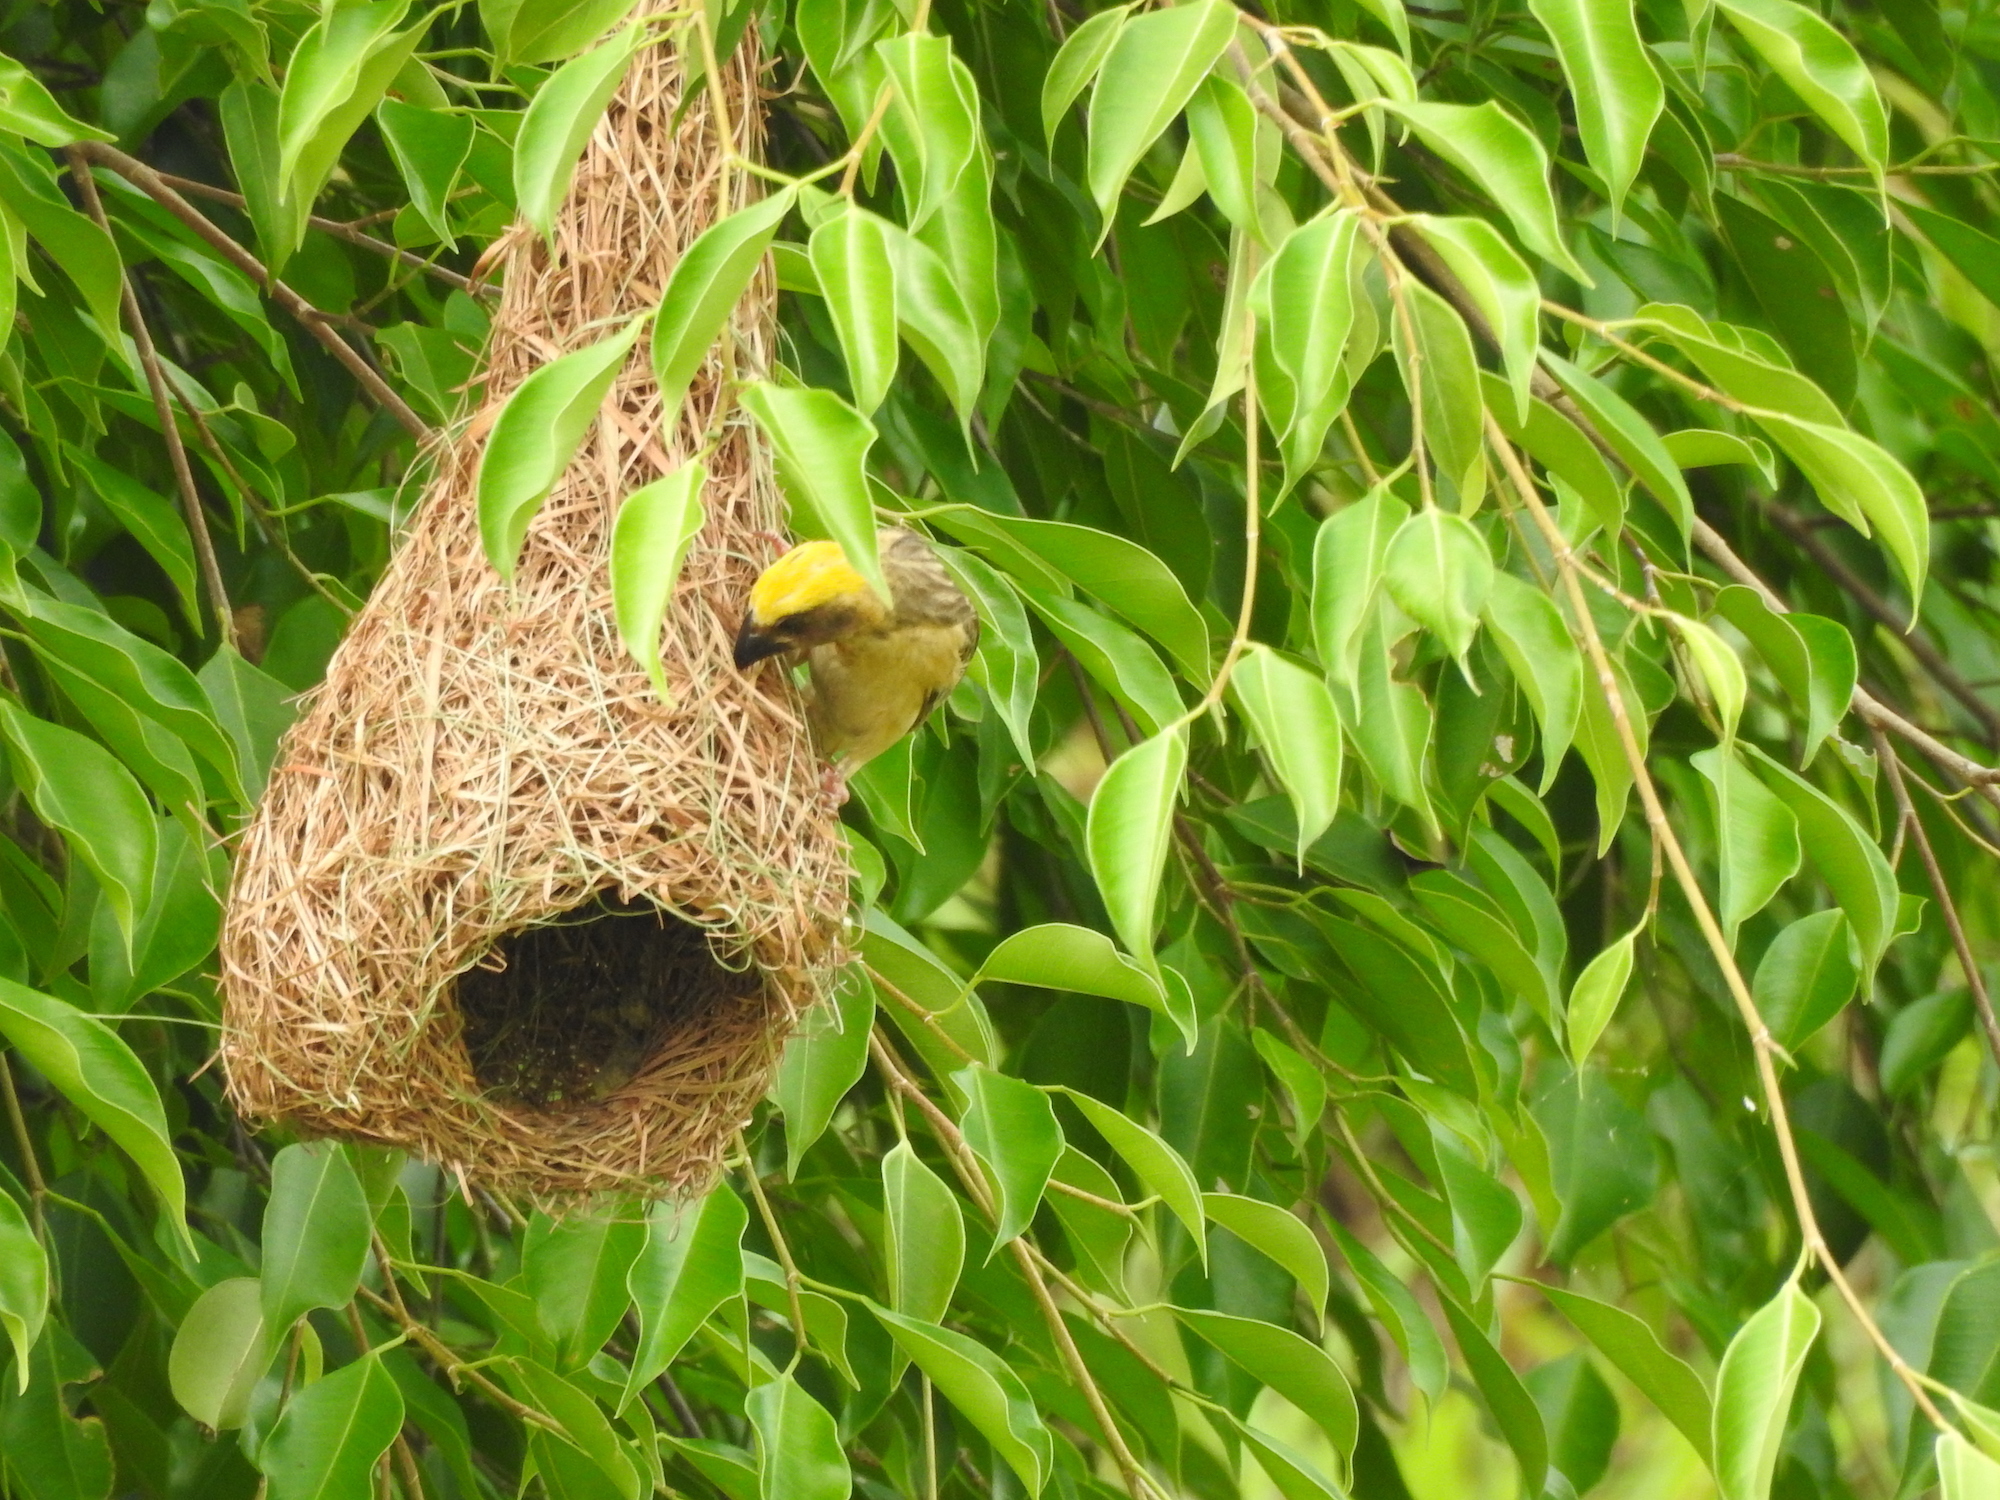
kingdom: Animalia
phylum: Chordata
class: Aves
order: Passeriformes
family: Ploceidae
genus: Ploceus
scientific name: Ploceus philippinus
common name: Baya weaver
